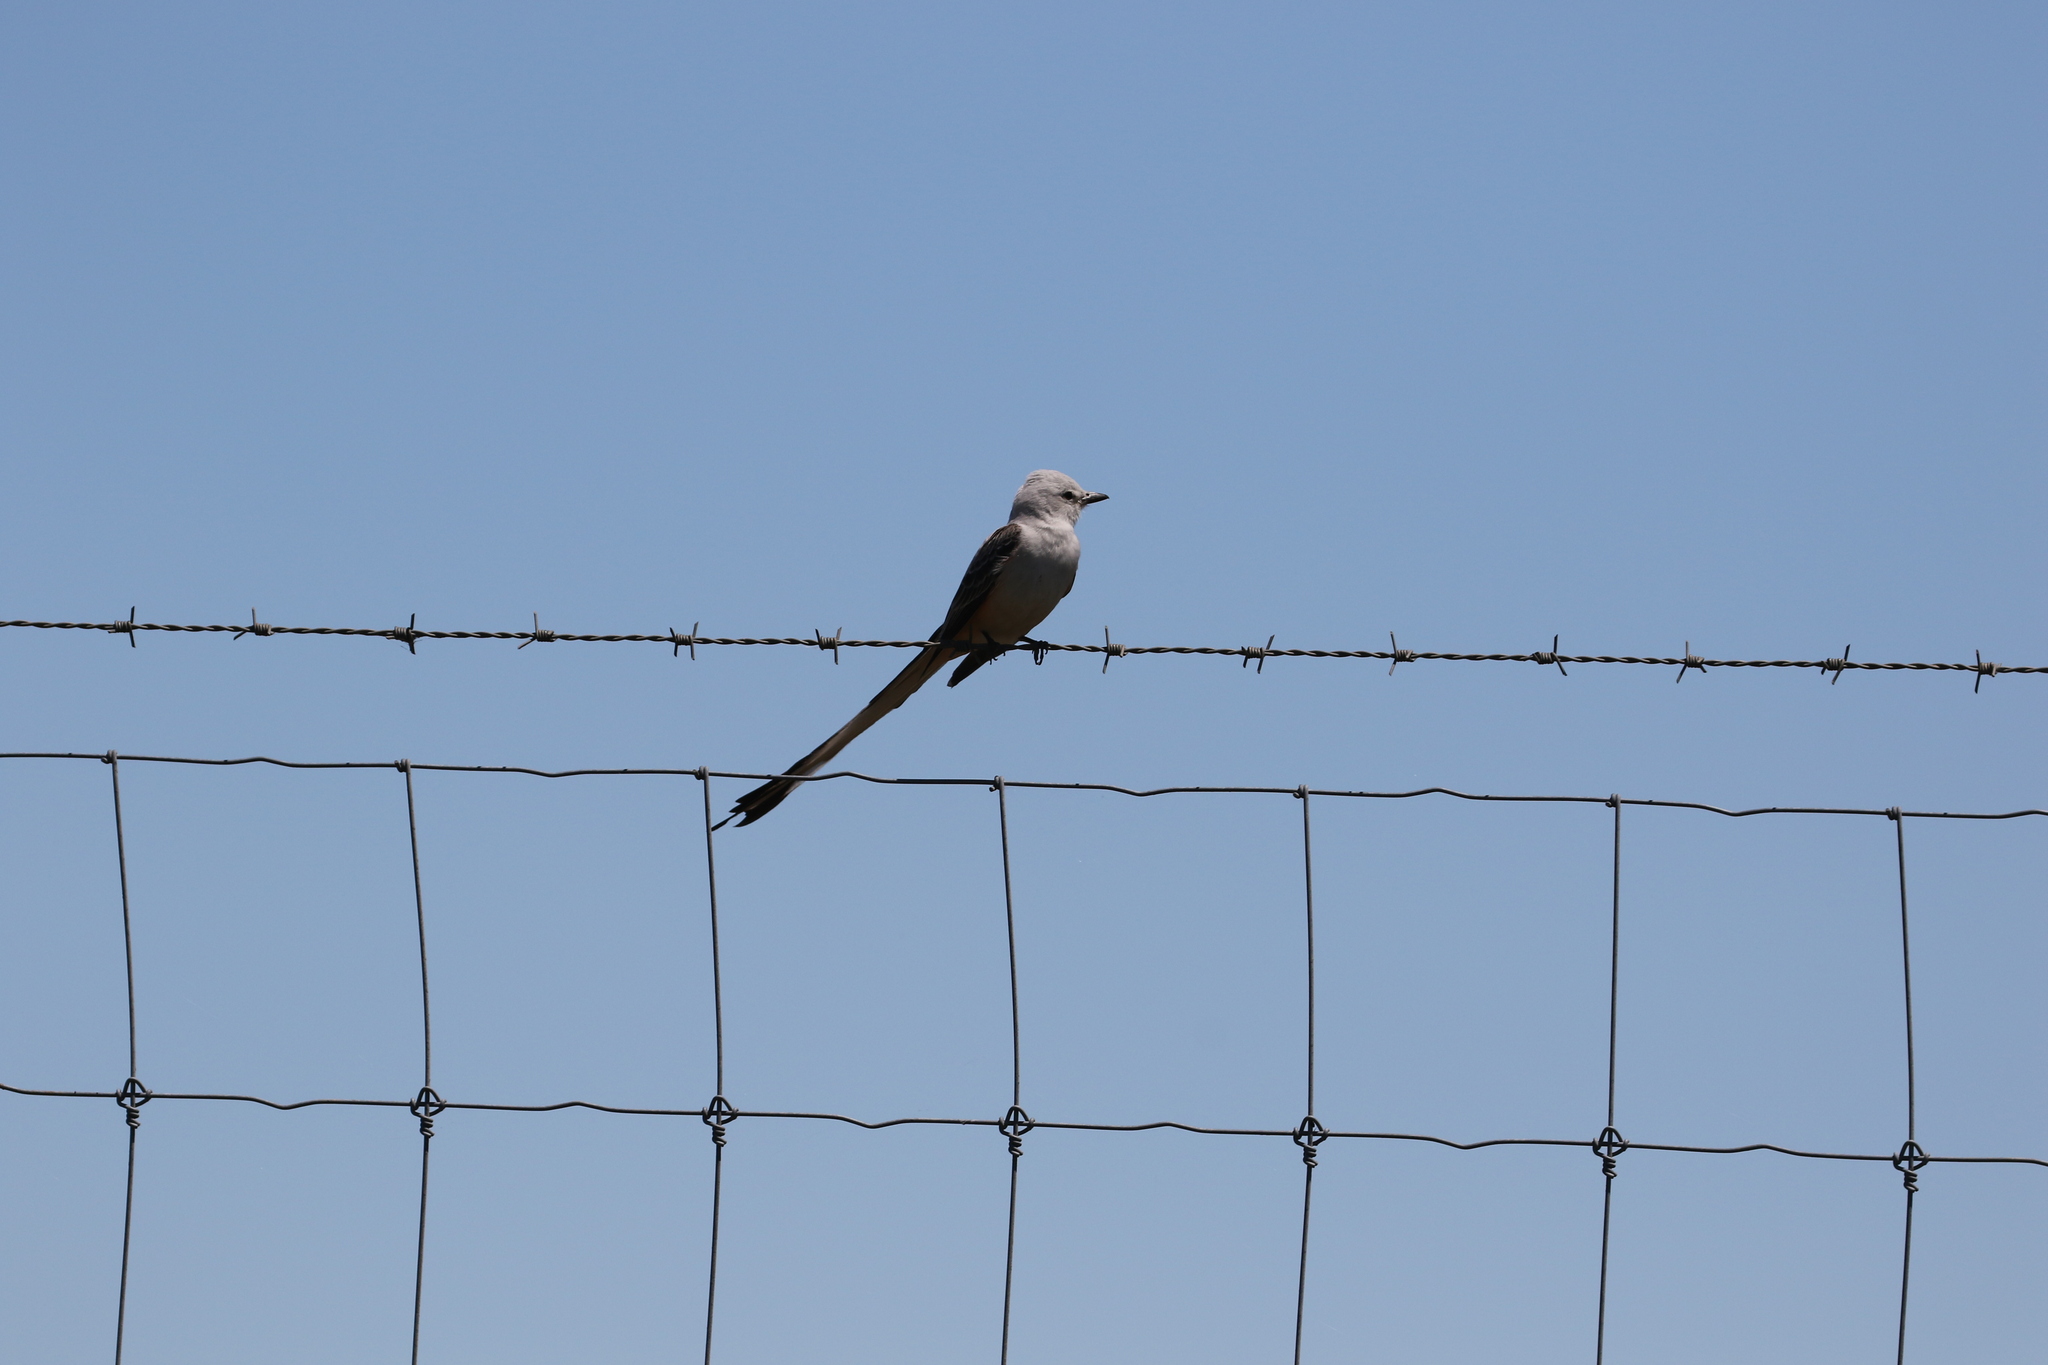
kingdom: Animalia
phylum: Chordata
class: Aves
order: Passeriformes
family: Tyrannidae
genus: Tyrannus
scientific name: Tyrannus forficatus
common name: Scissor-tailed flycatcher
